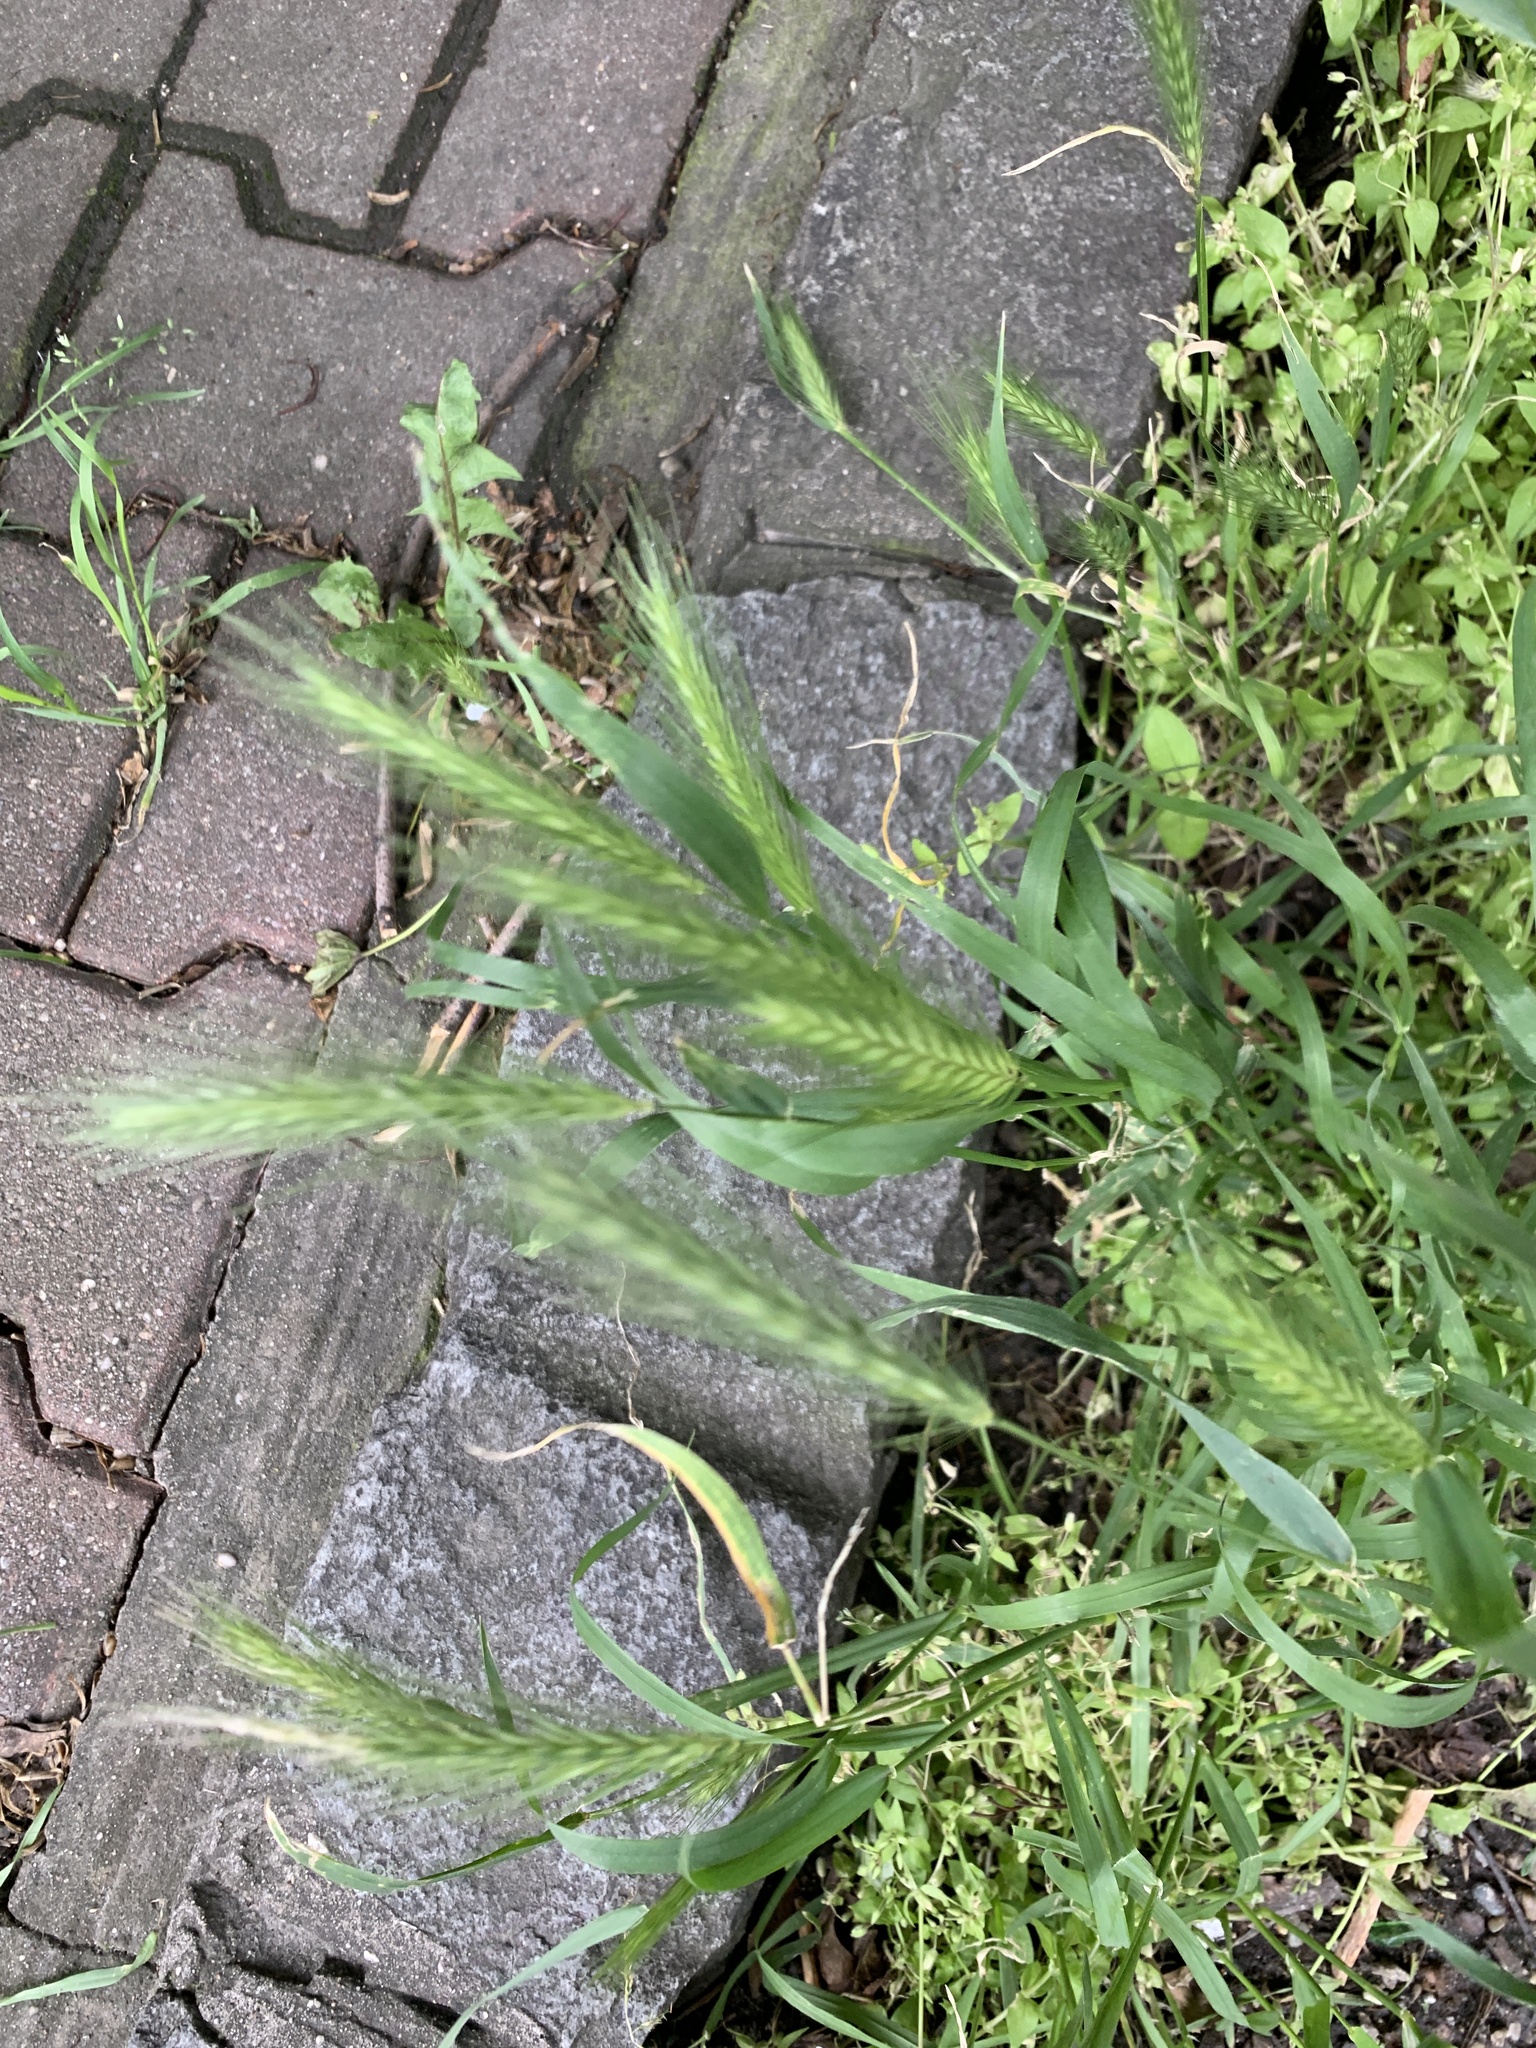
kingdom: Plantae
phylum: Tracheophyta
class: Liliopsida
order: Poales
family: Poaceae
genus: Hordeum
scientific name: Hordeum murinum
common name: Wall barley
